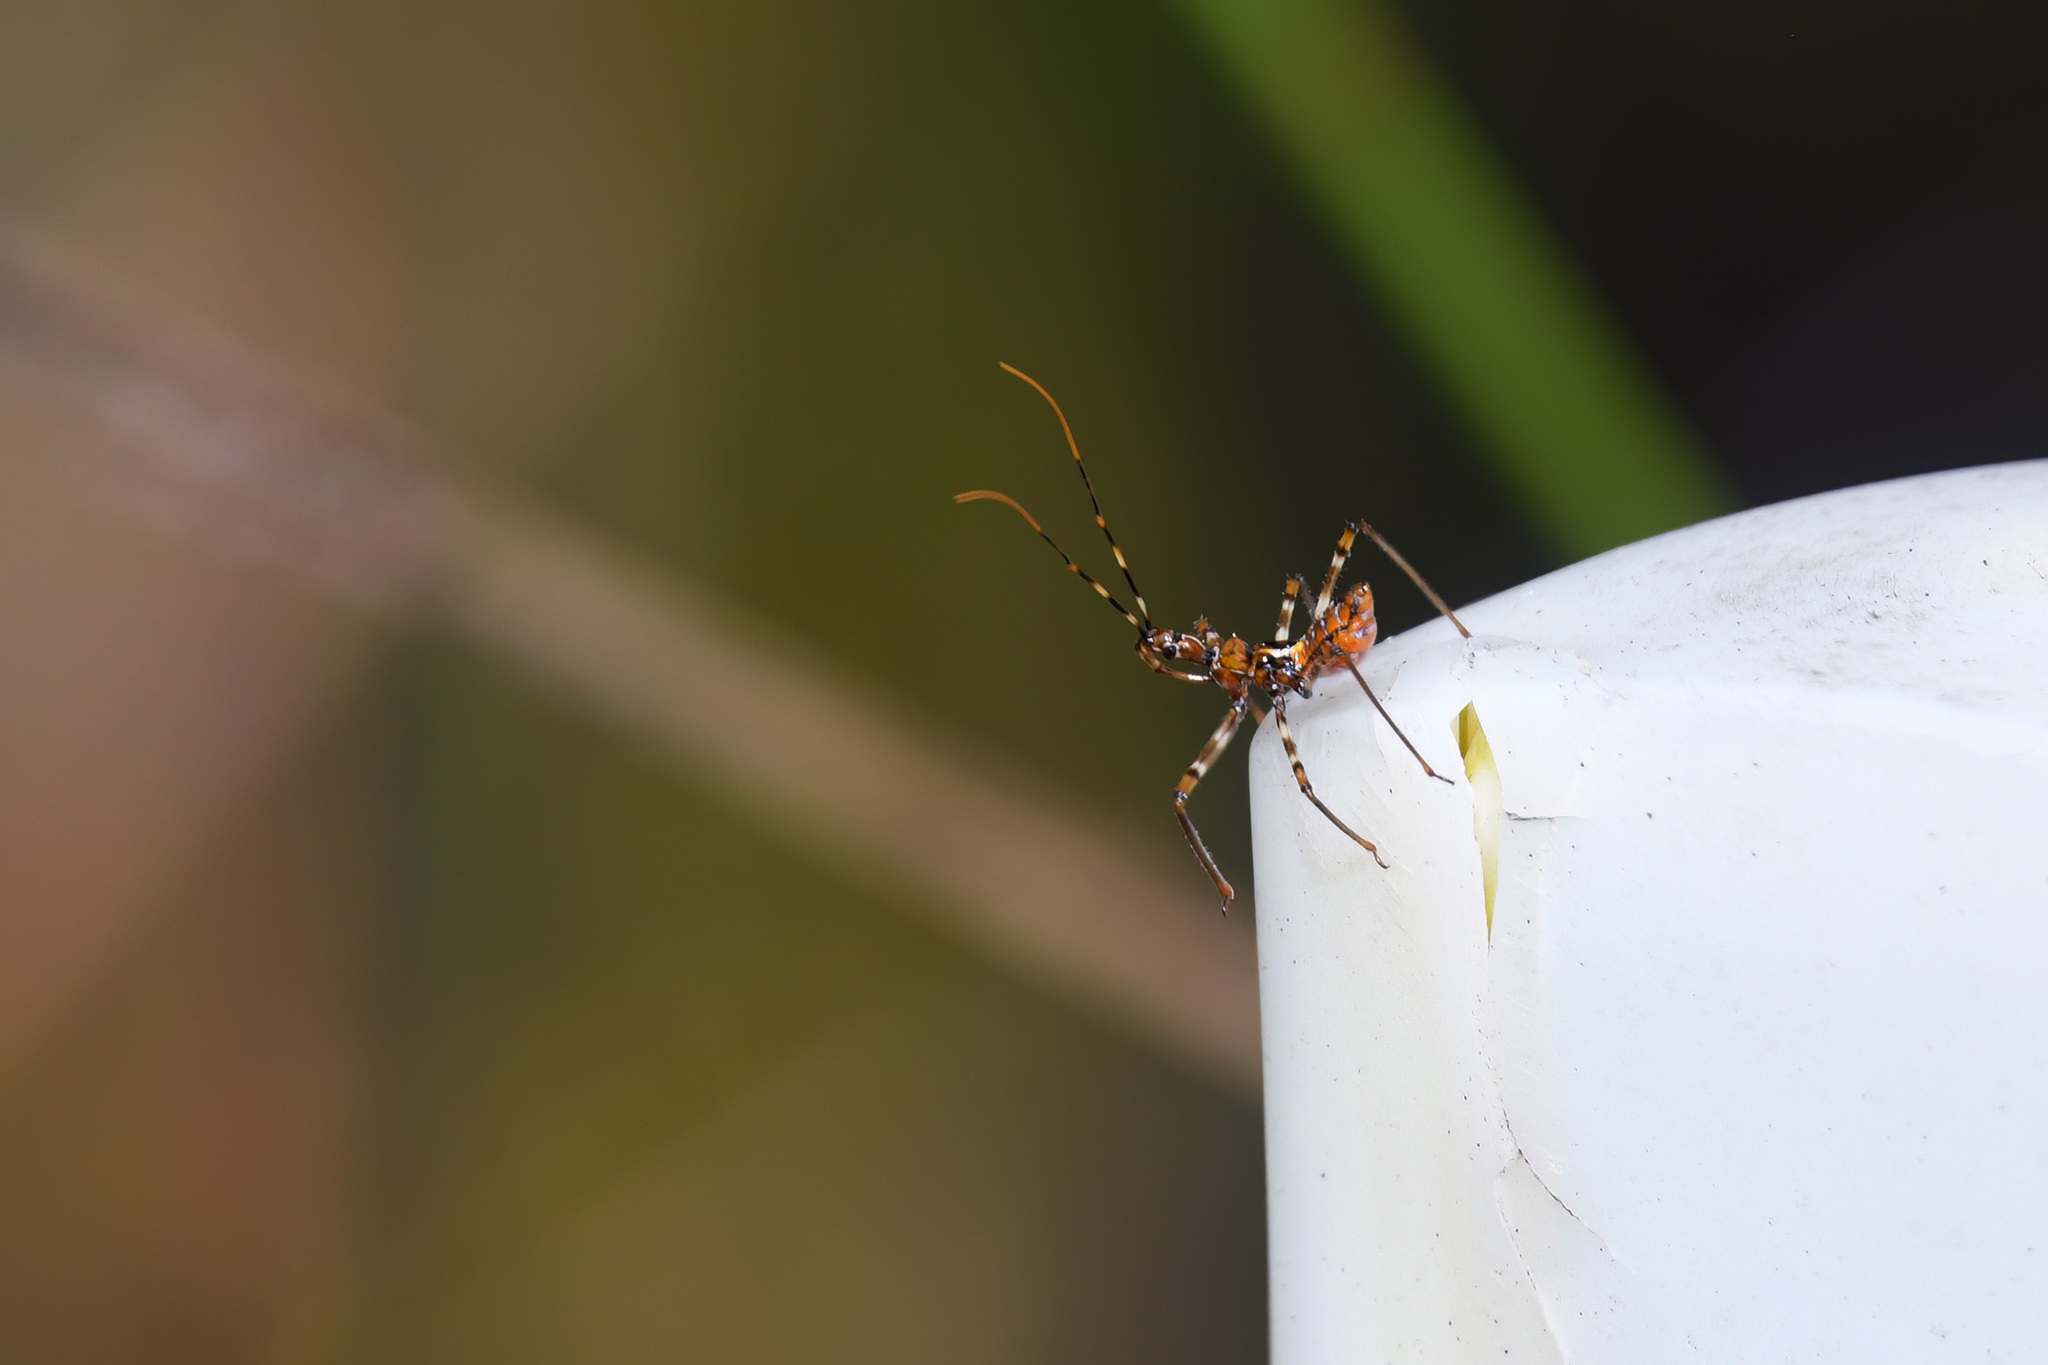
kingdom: Animalia
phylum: Arthropoda
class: Insecta
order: Hemiptera
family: Reduviidae
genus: Pristhesancus
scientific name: Pristhesancus plagipennis
